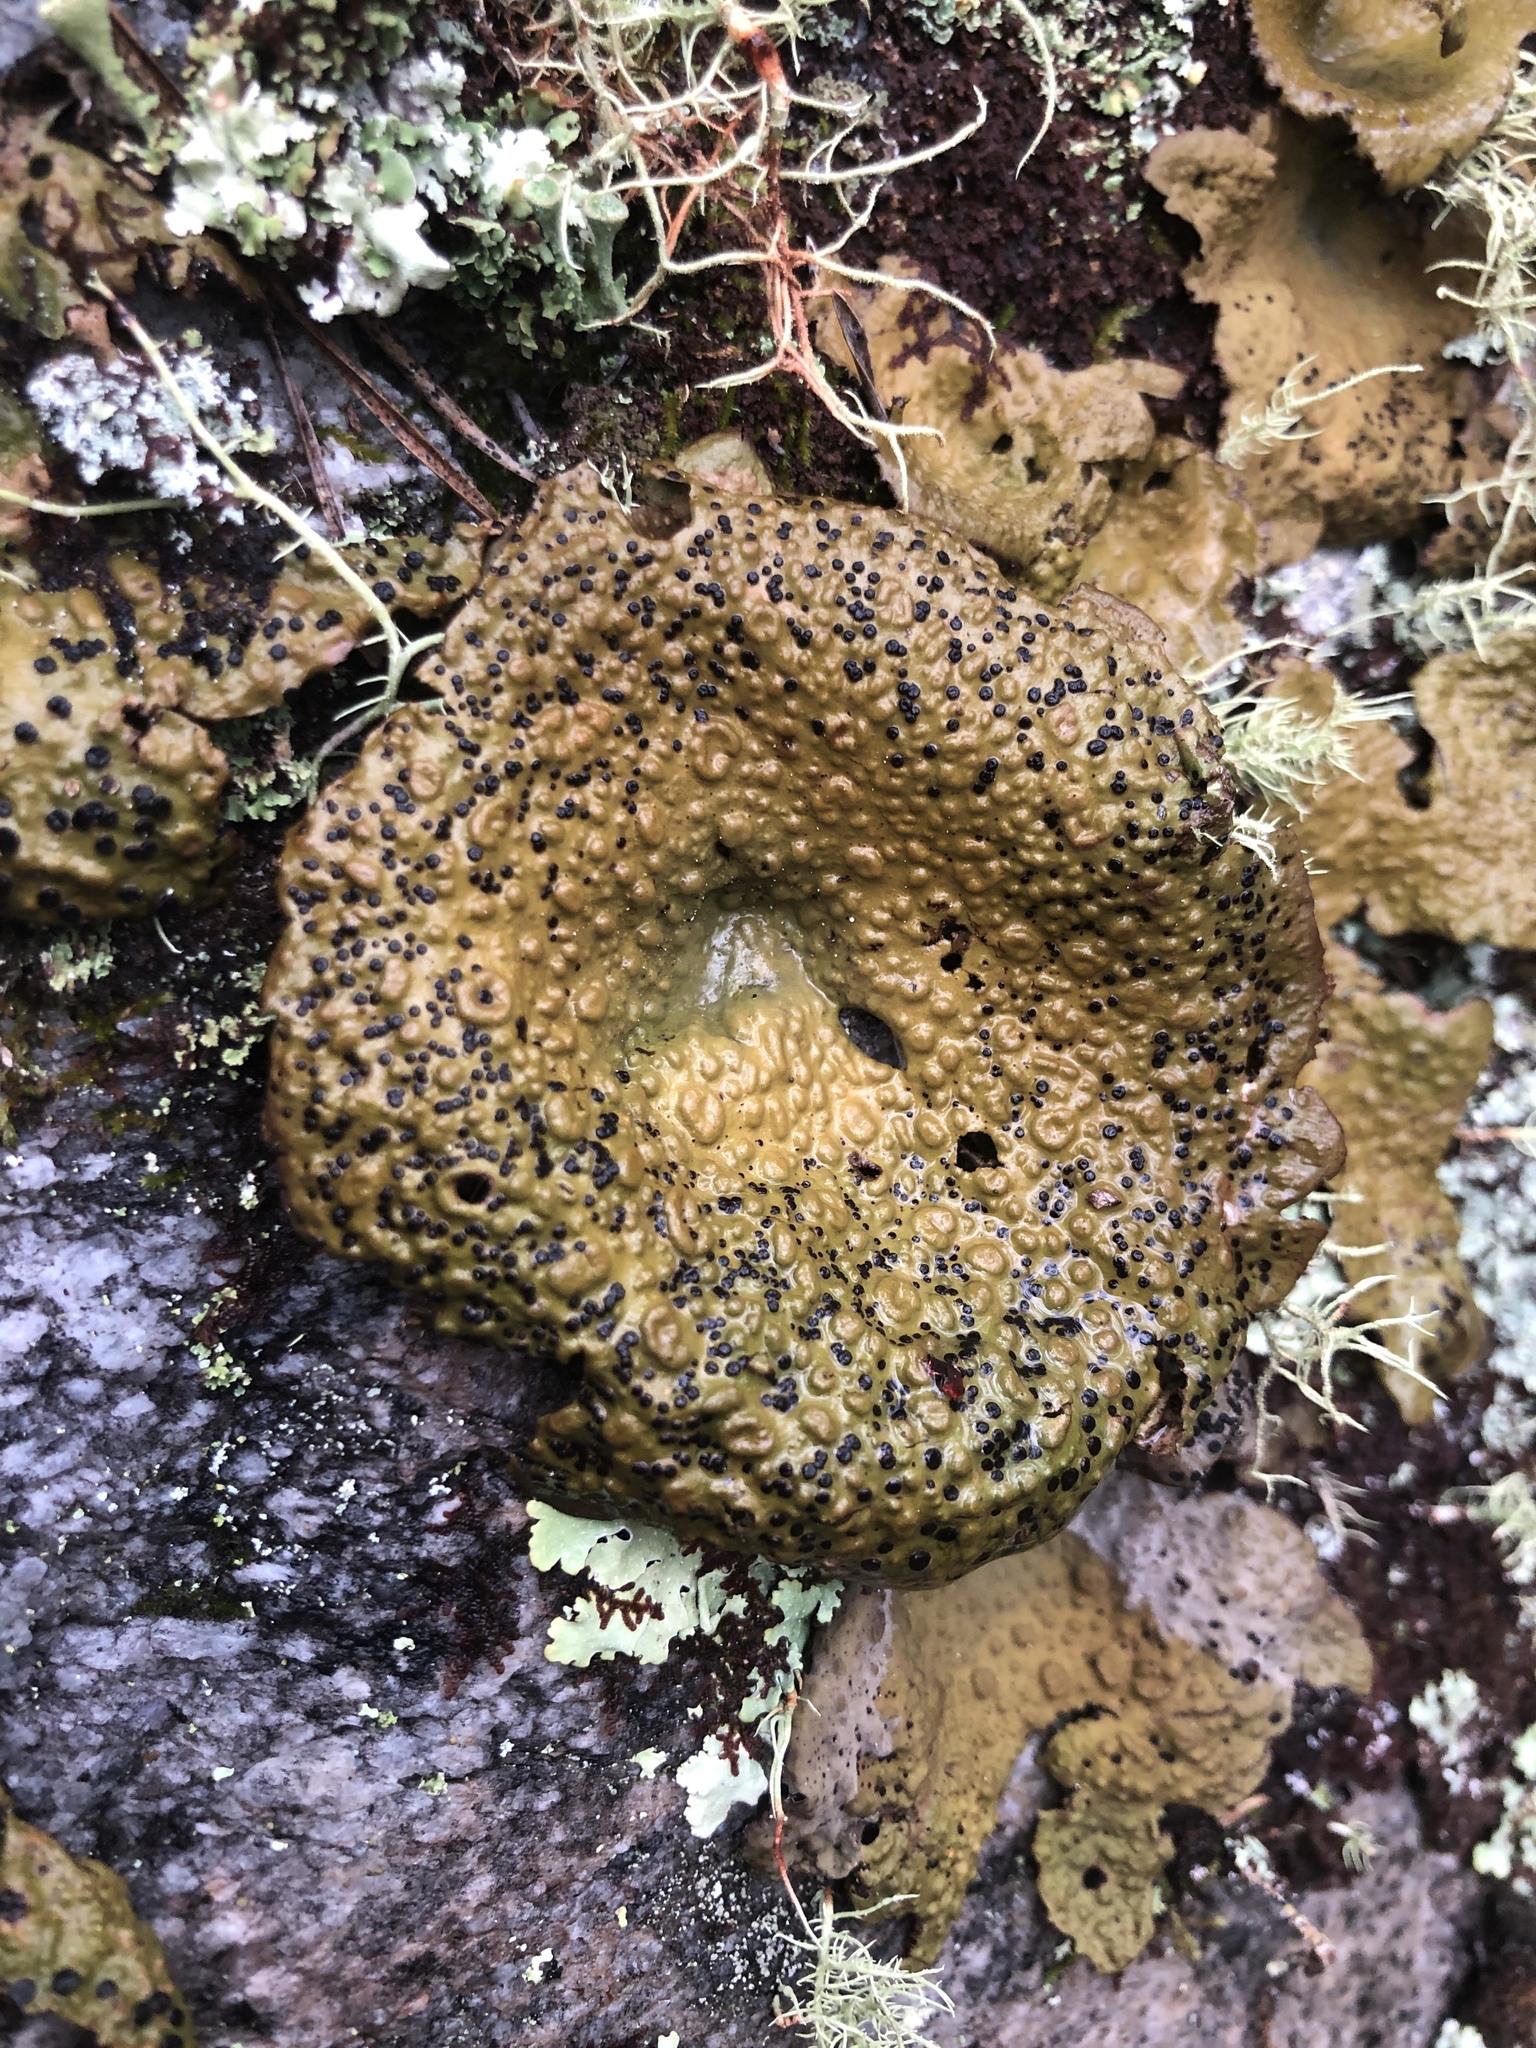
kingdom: Fungi
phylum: Ascomycota
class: Lecanoromycetes
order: Umbilicariales
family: Umbilicariaceae
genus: Lasallia
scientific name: Lasallia papulosa
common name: Common toadskin lichen
